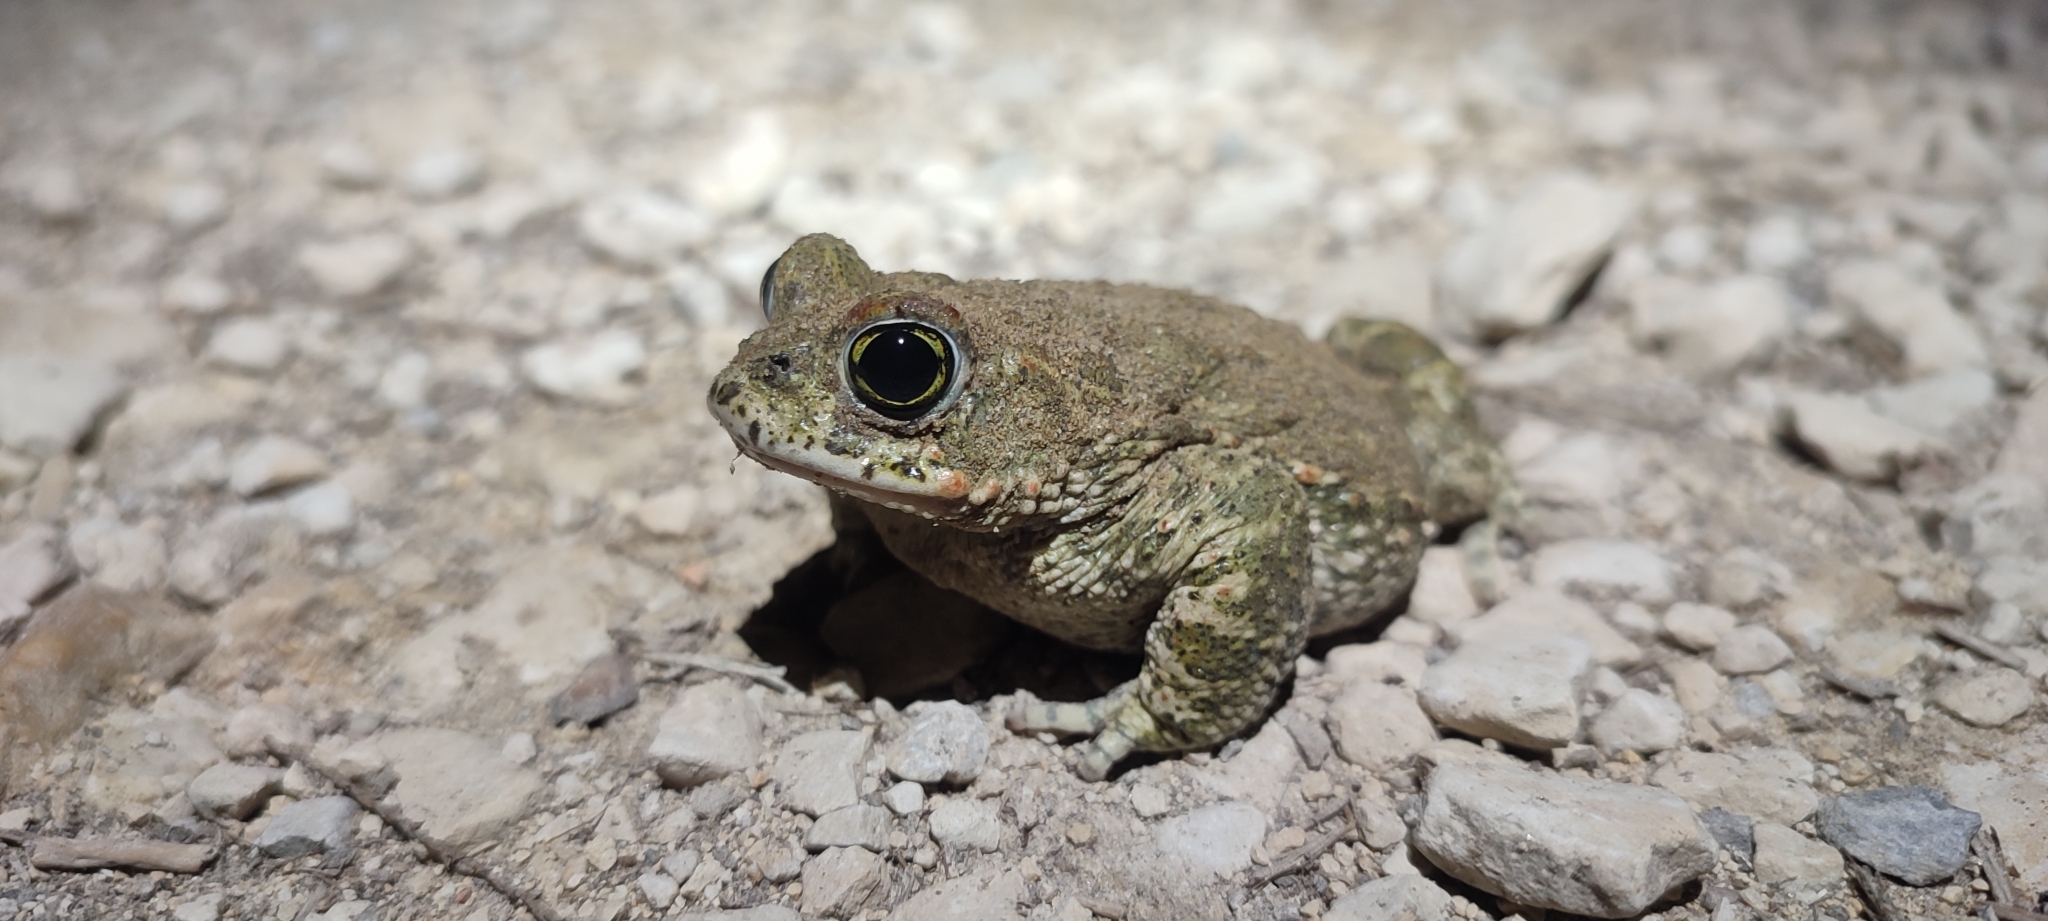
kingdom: Animalia
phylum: Chordata
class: Amphibia
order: Anura
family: Bufonidae
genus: Epidalea
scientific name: Epidalea calamita
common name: Natterjack toad
